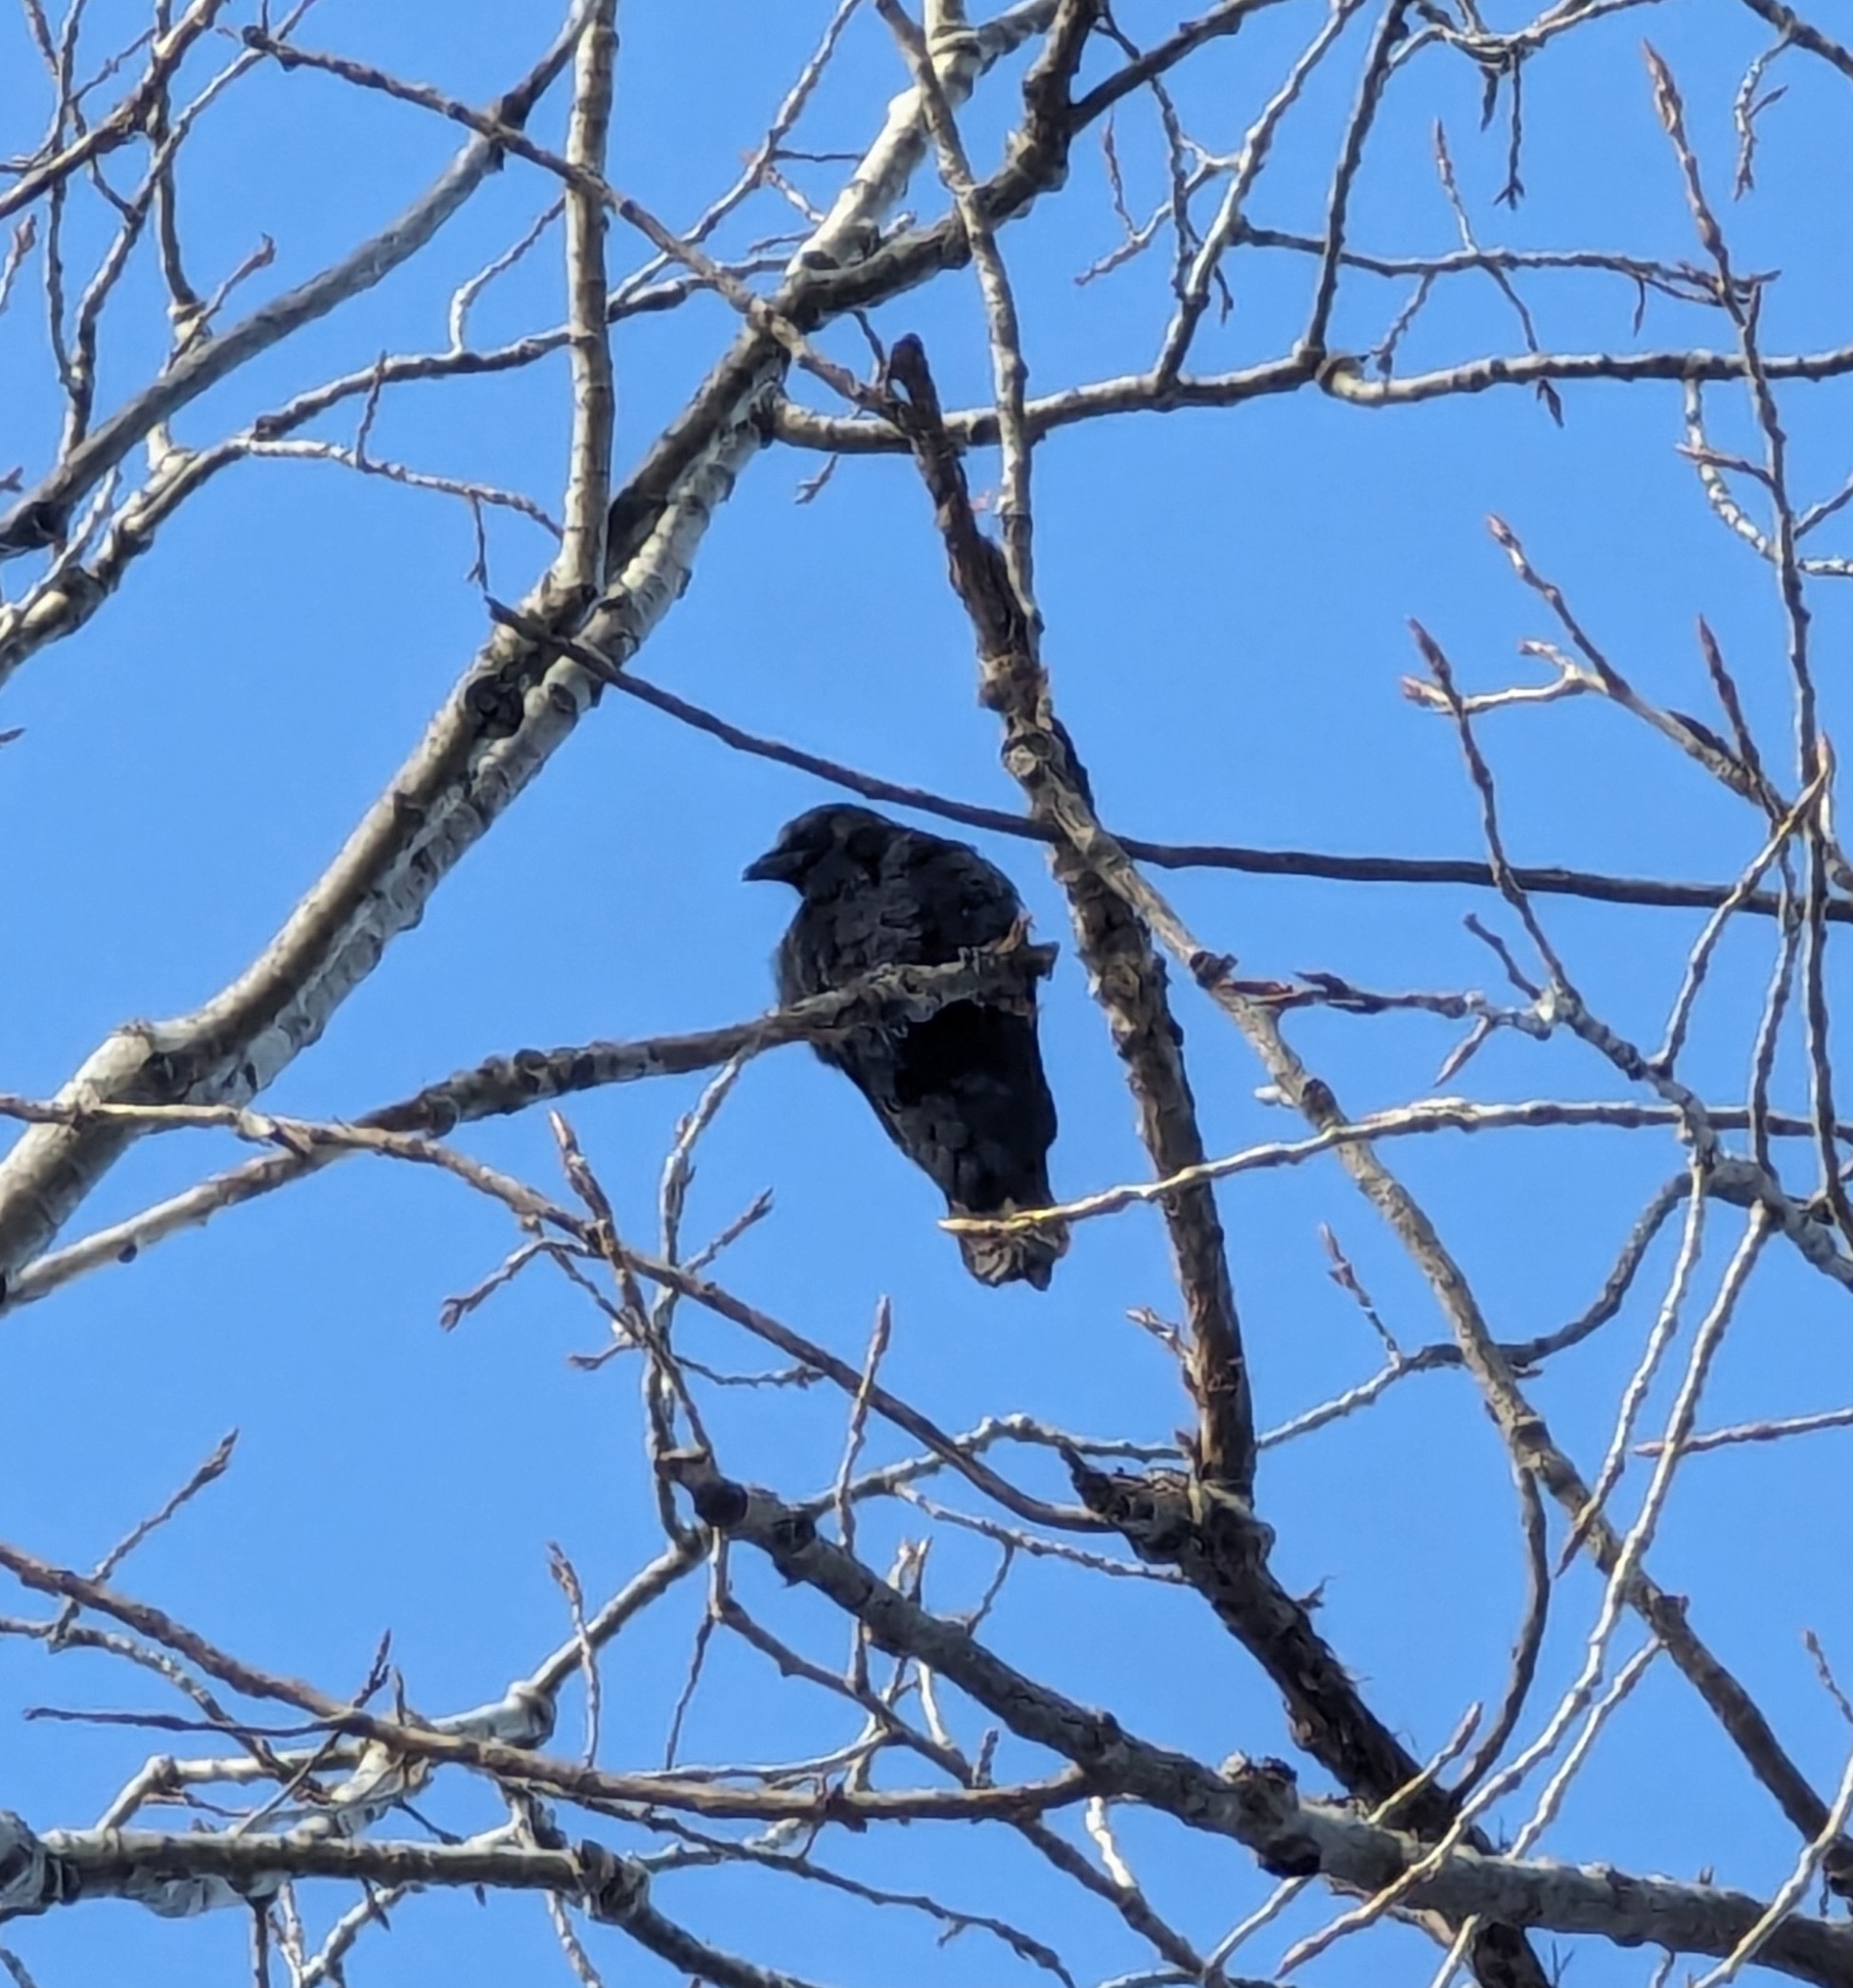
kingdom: Animalia
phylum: Chordata
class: Aves
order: Passeriformes
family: Corvidae
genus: Corvus
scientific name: Corvus brachyrhynchos
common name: American crow
